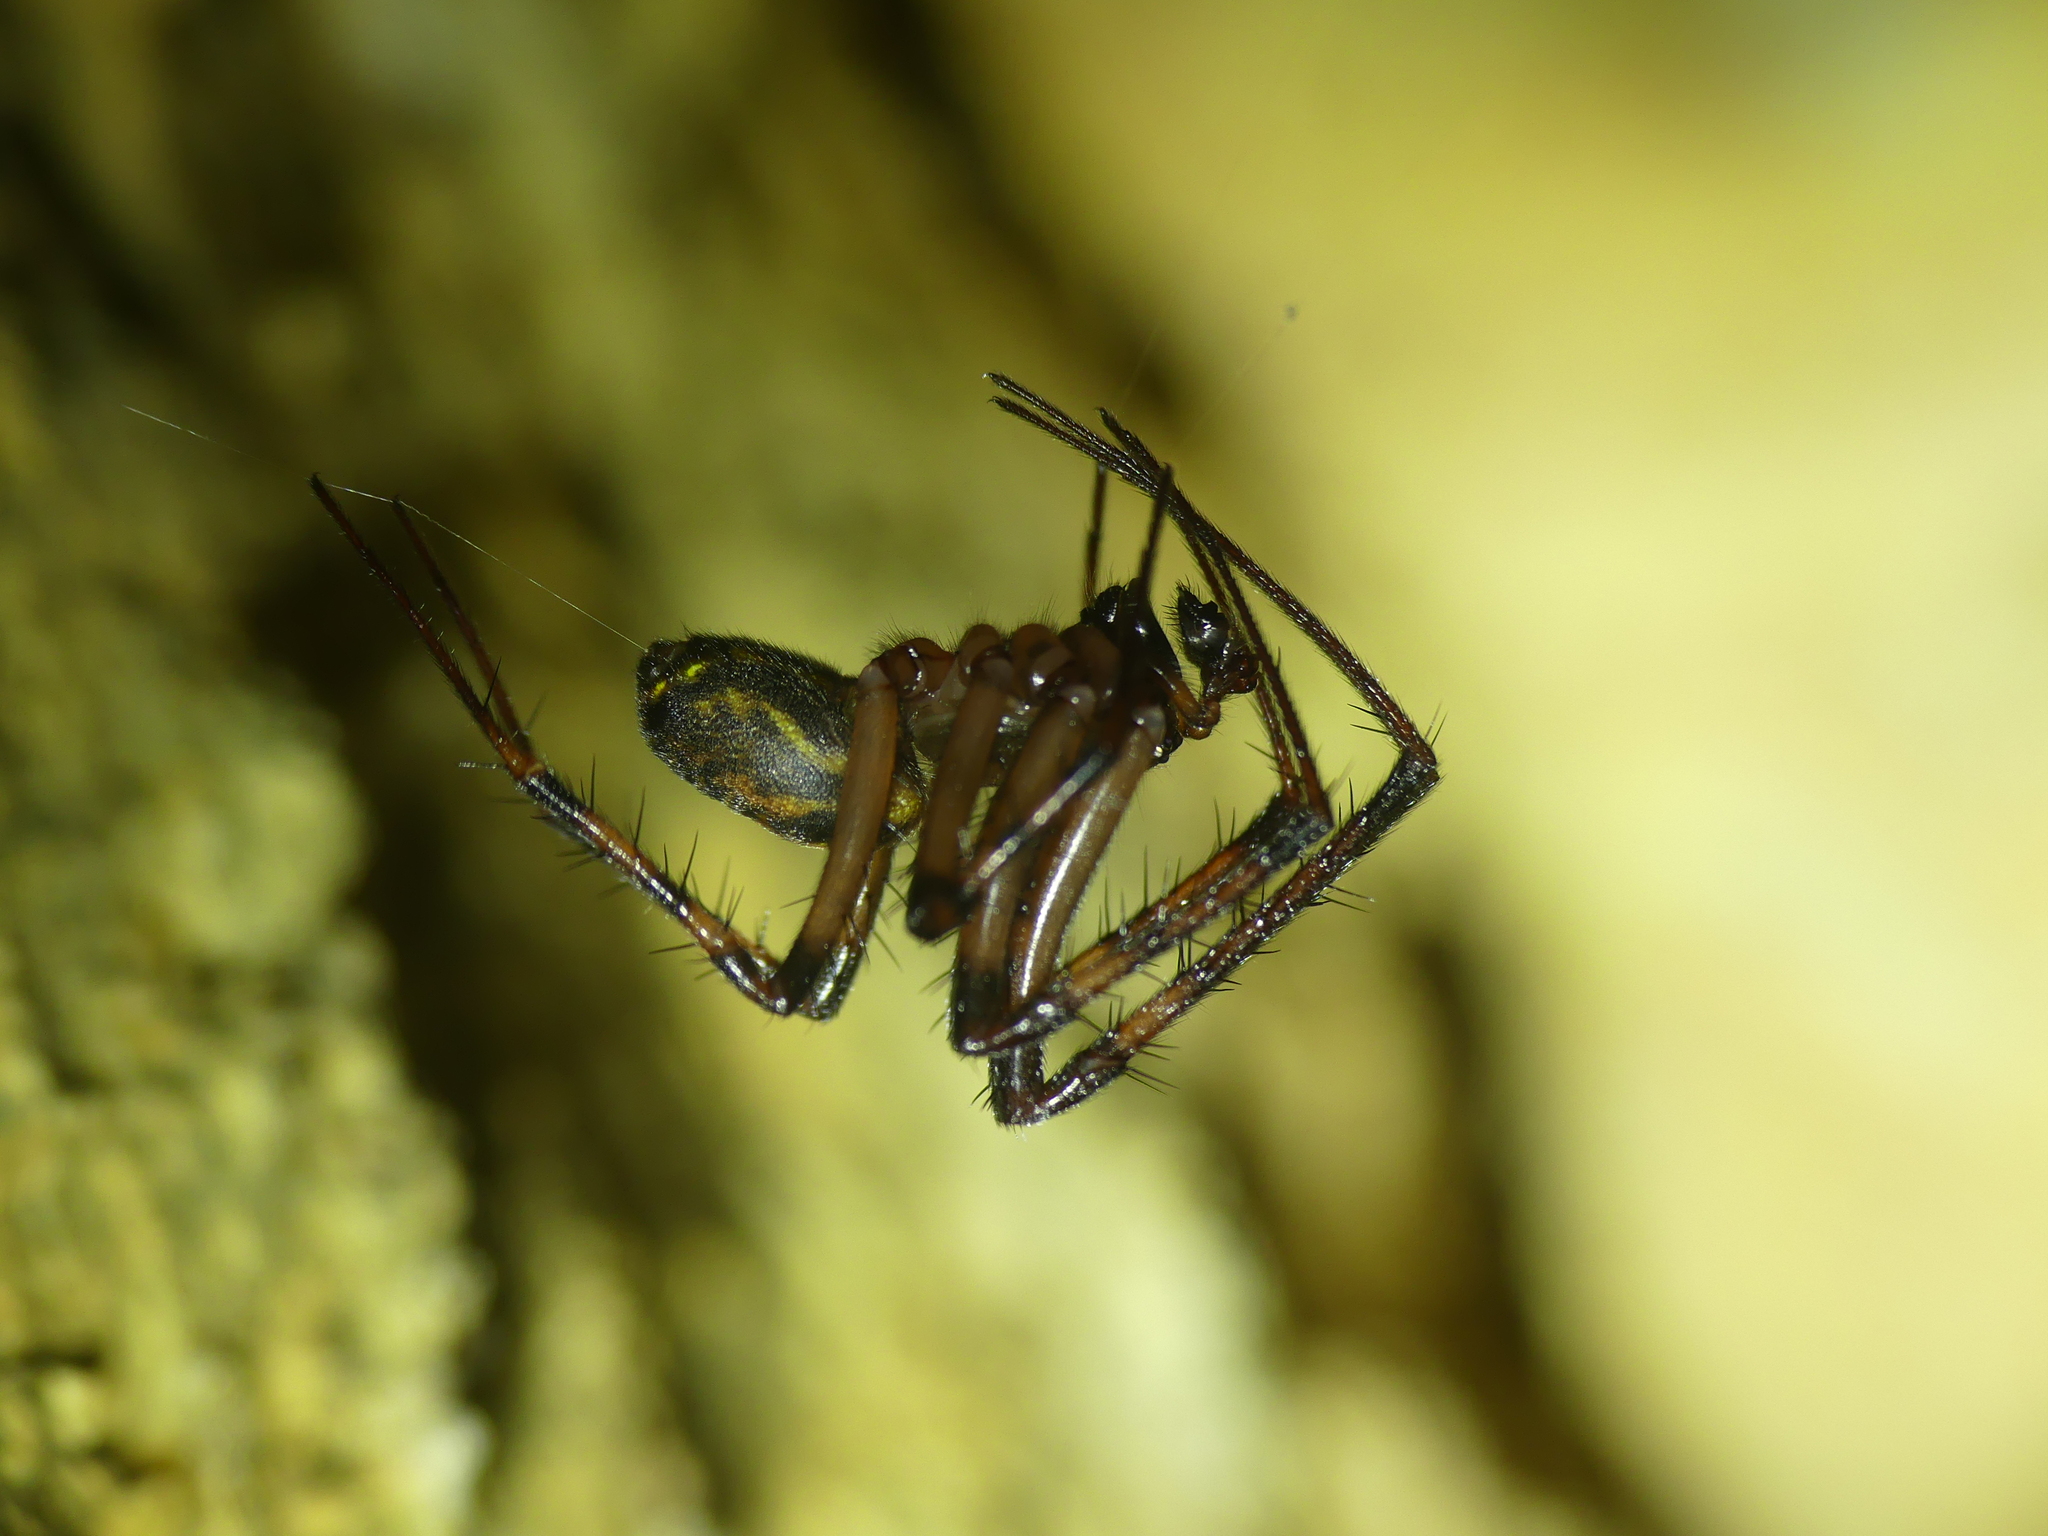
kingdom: Animalia
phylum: Arthropoda
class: Arachnida
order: Araneae
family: Tetragnathidae
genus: Meta
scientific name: Meta menardi
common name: Cave spider
